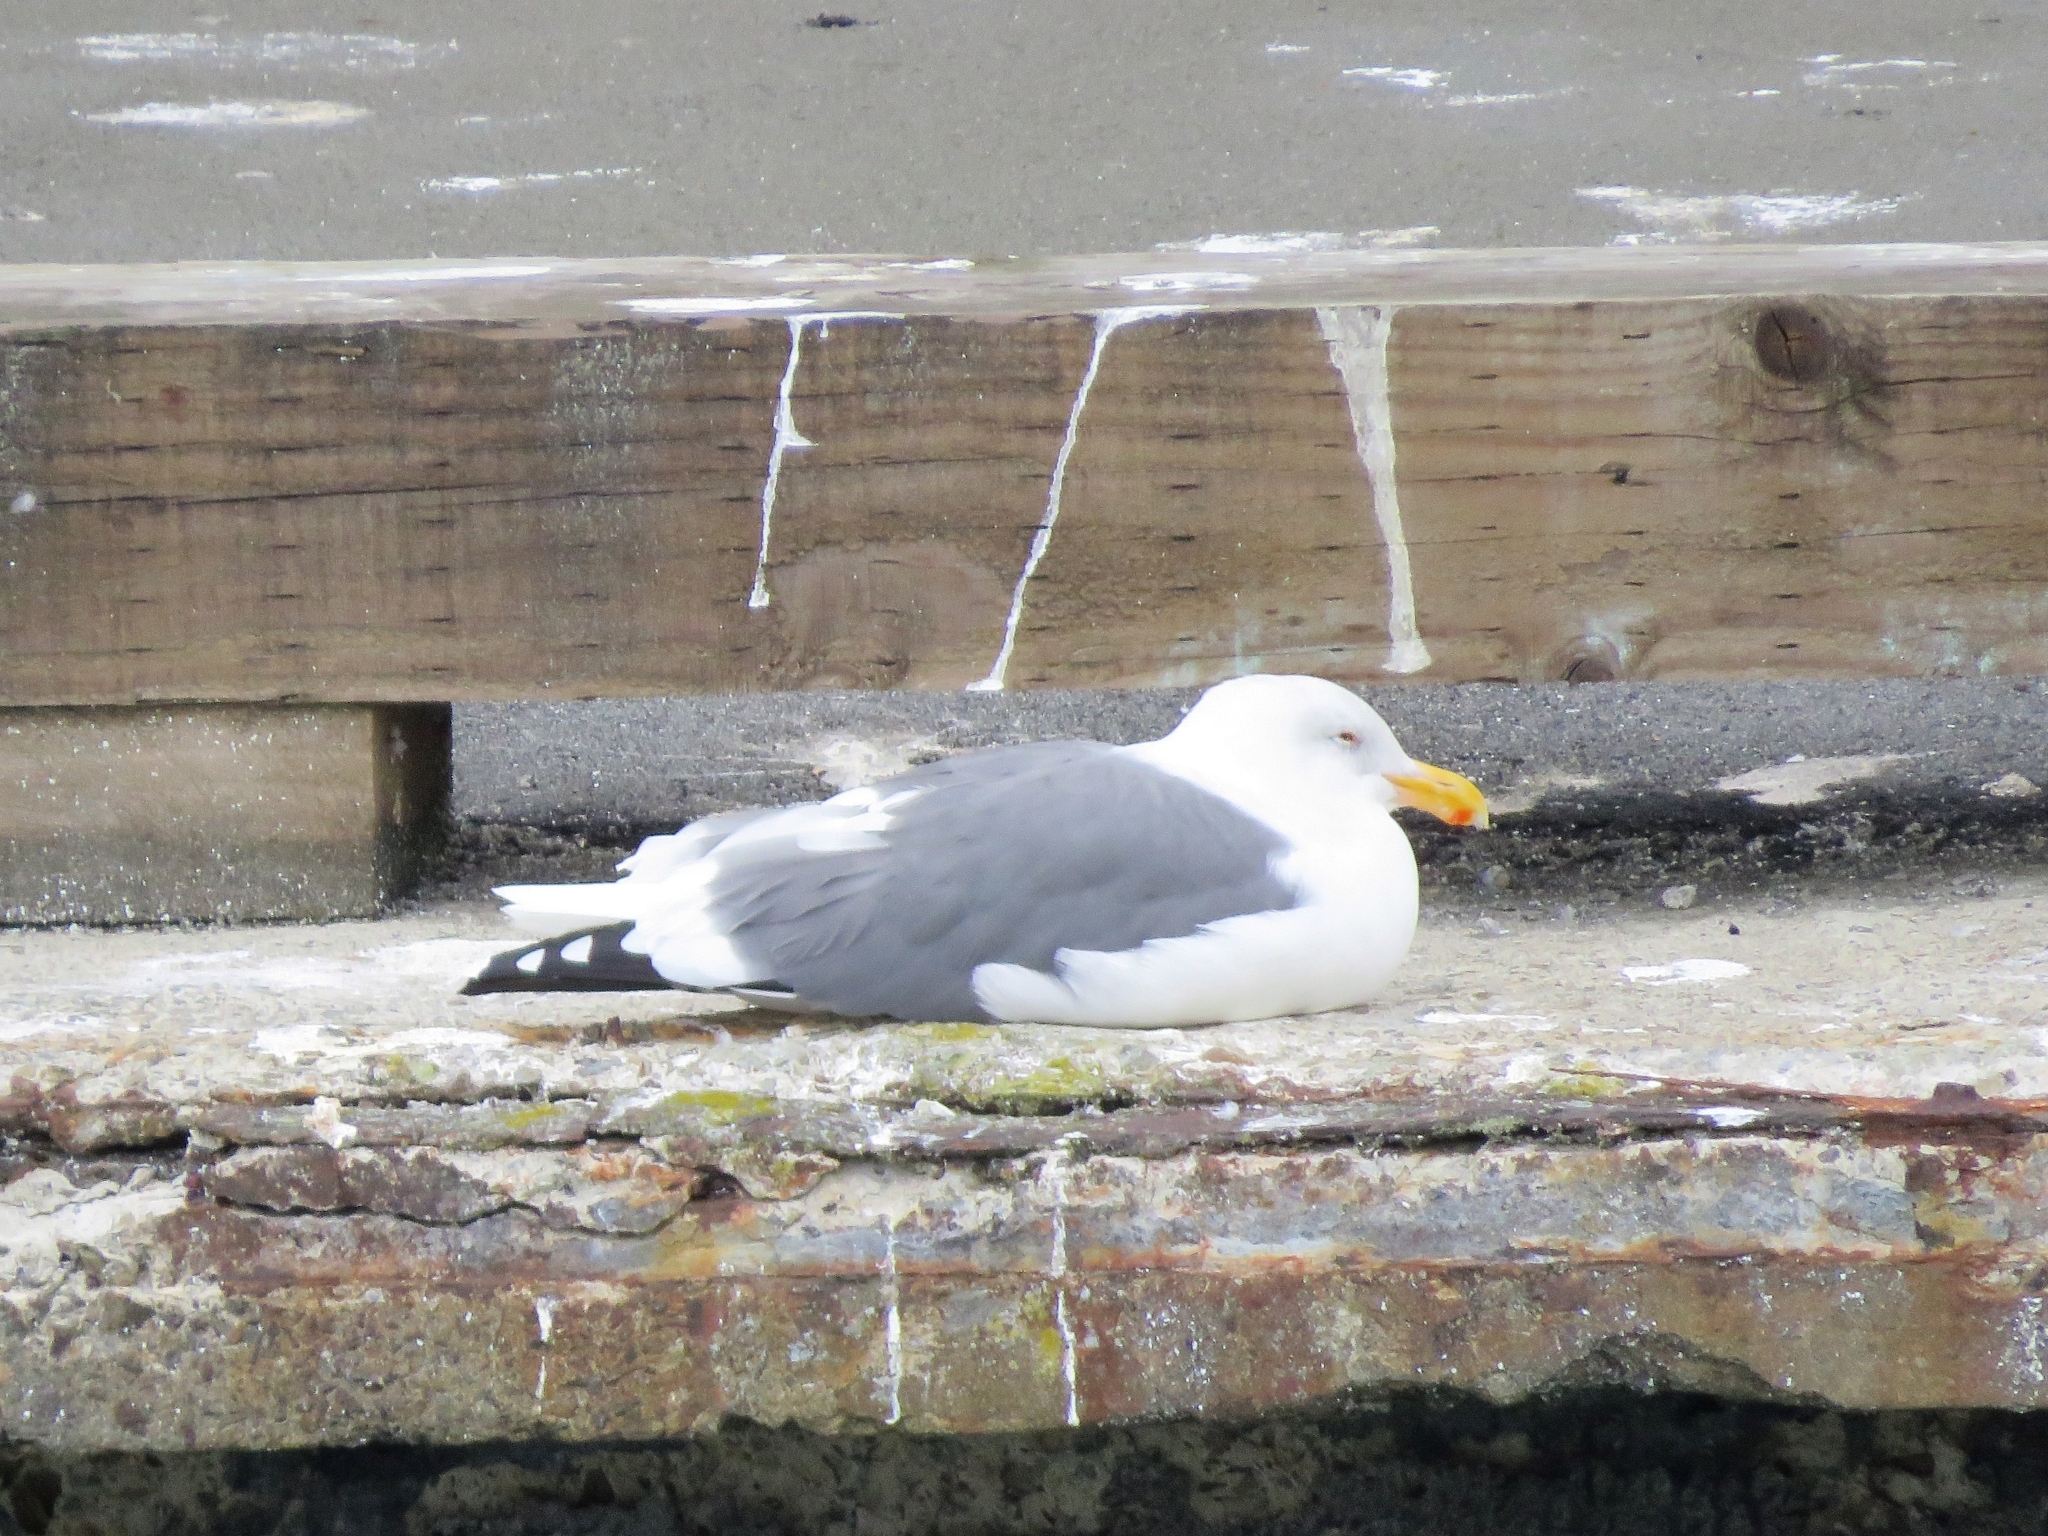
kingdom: Animalia
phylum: Chordata
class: Aves
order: Charadriiformes
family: Laridae
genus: Larus
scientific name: Larus occidentalis
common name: Western gull
